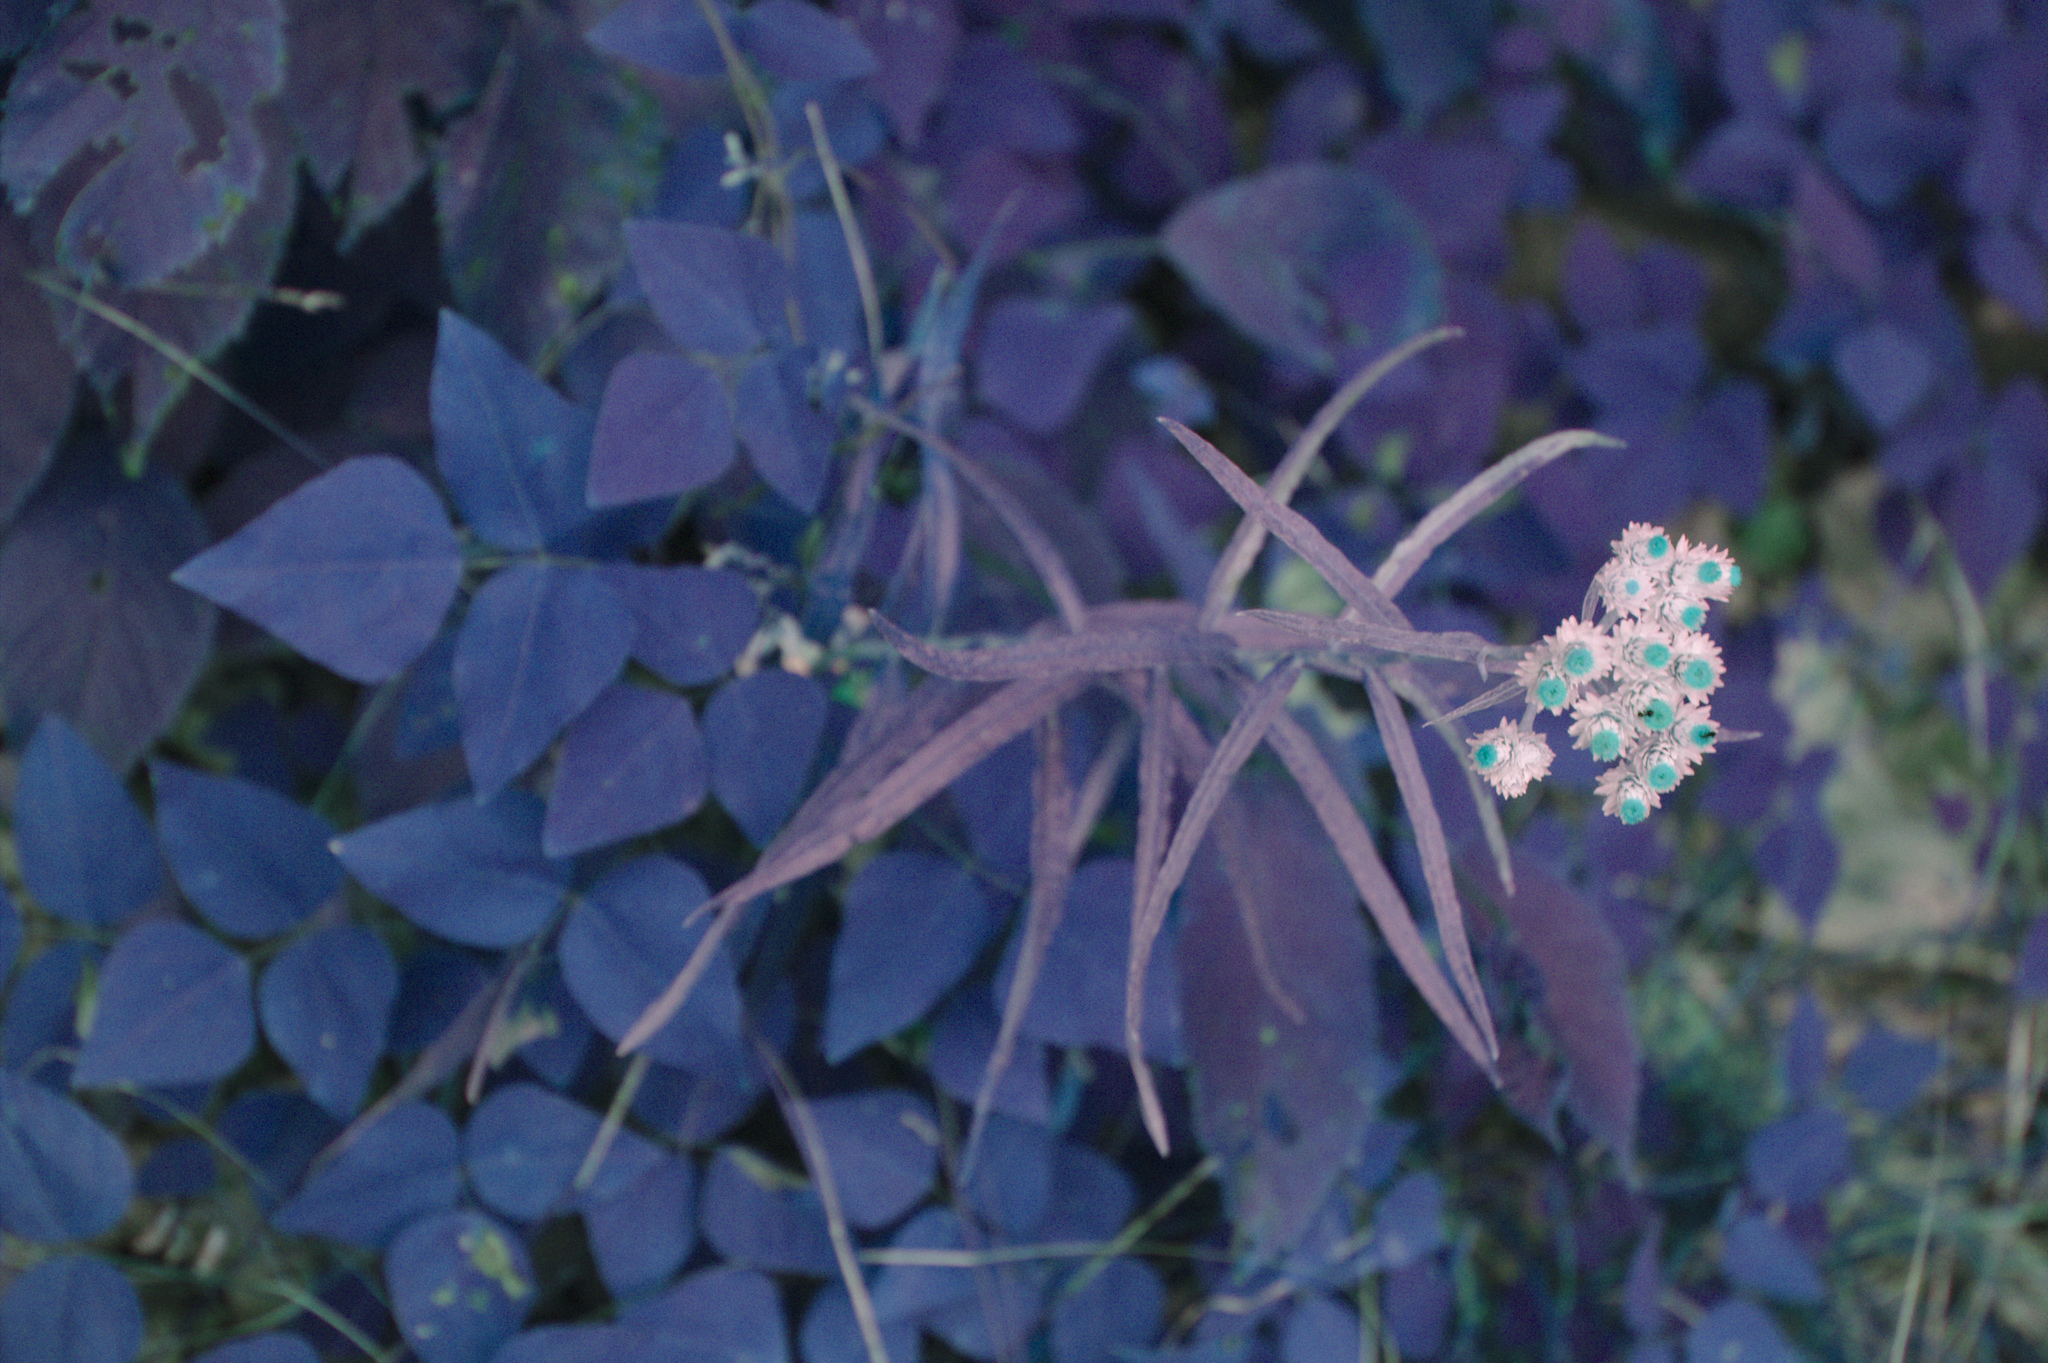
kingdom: Plantae
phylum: Tracheophyta
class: Magnoliopsida
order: Asterales
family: Asteraceae
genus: Anaphalis
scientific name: Anaphalis margaritacea
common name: Pearly everlasting
